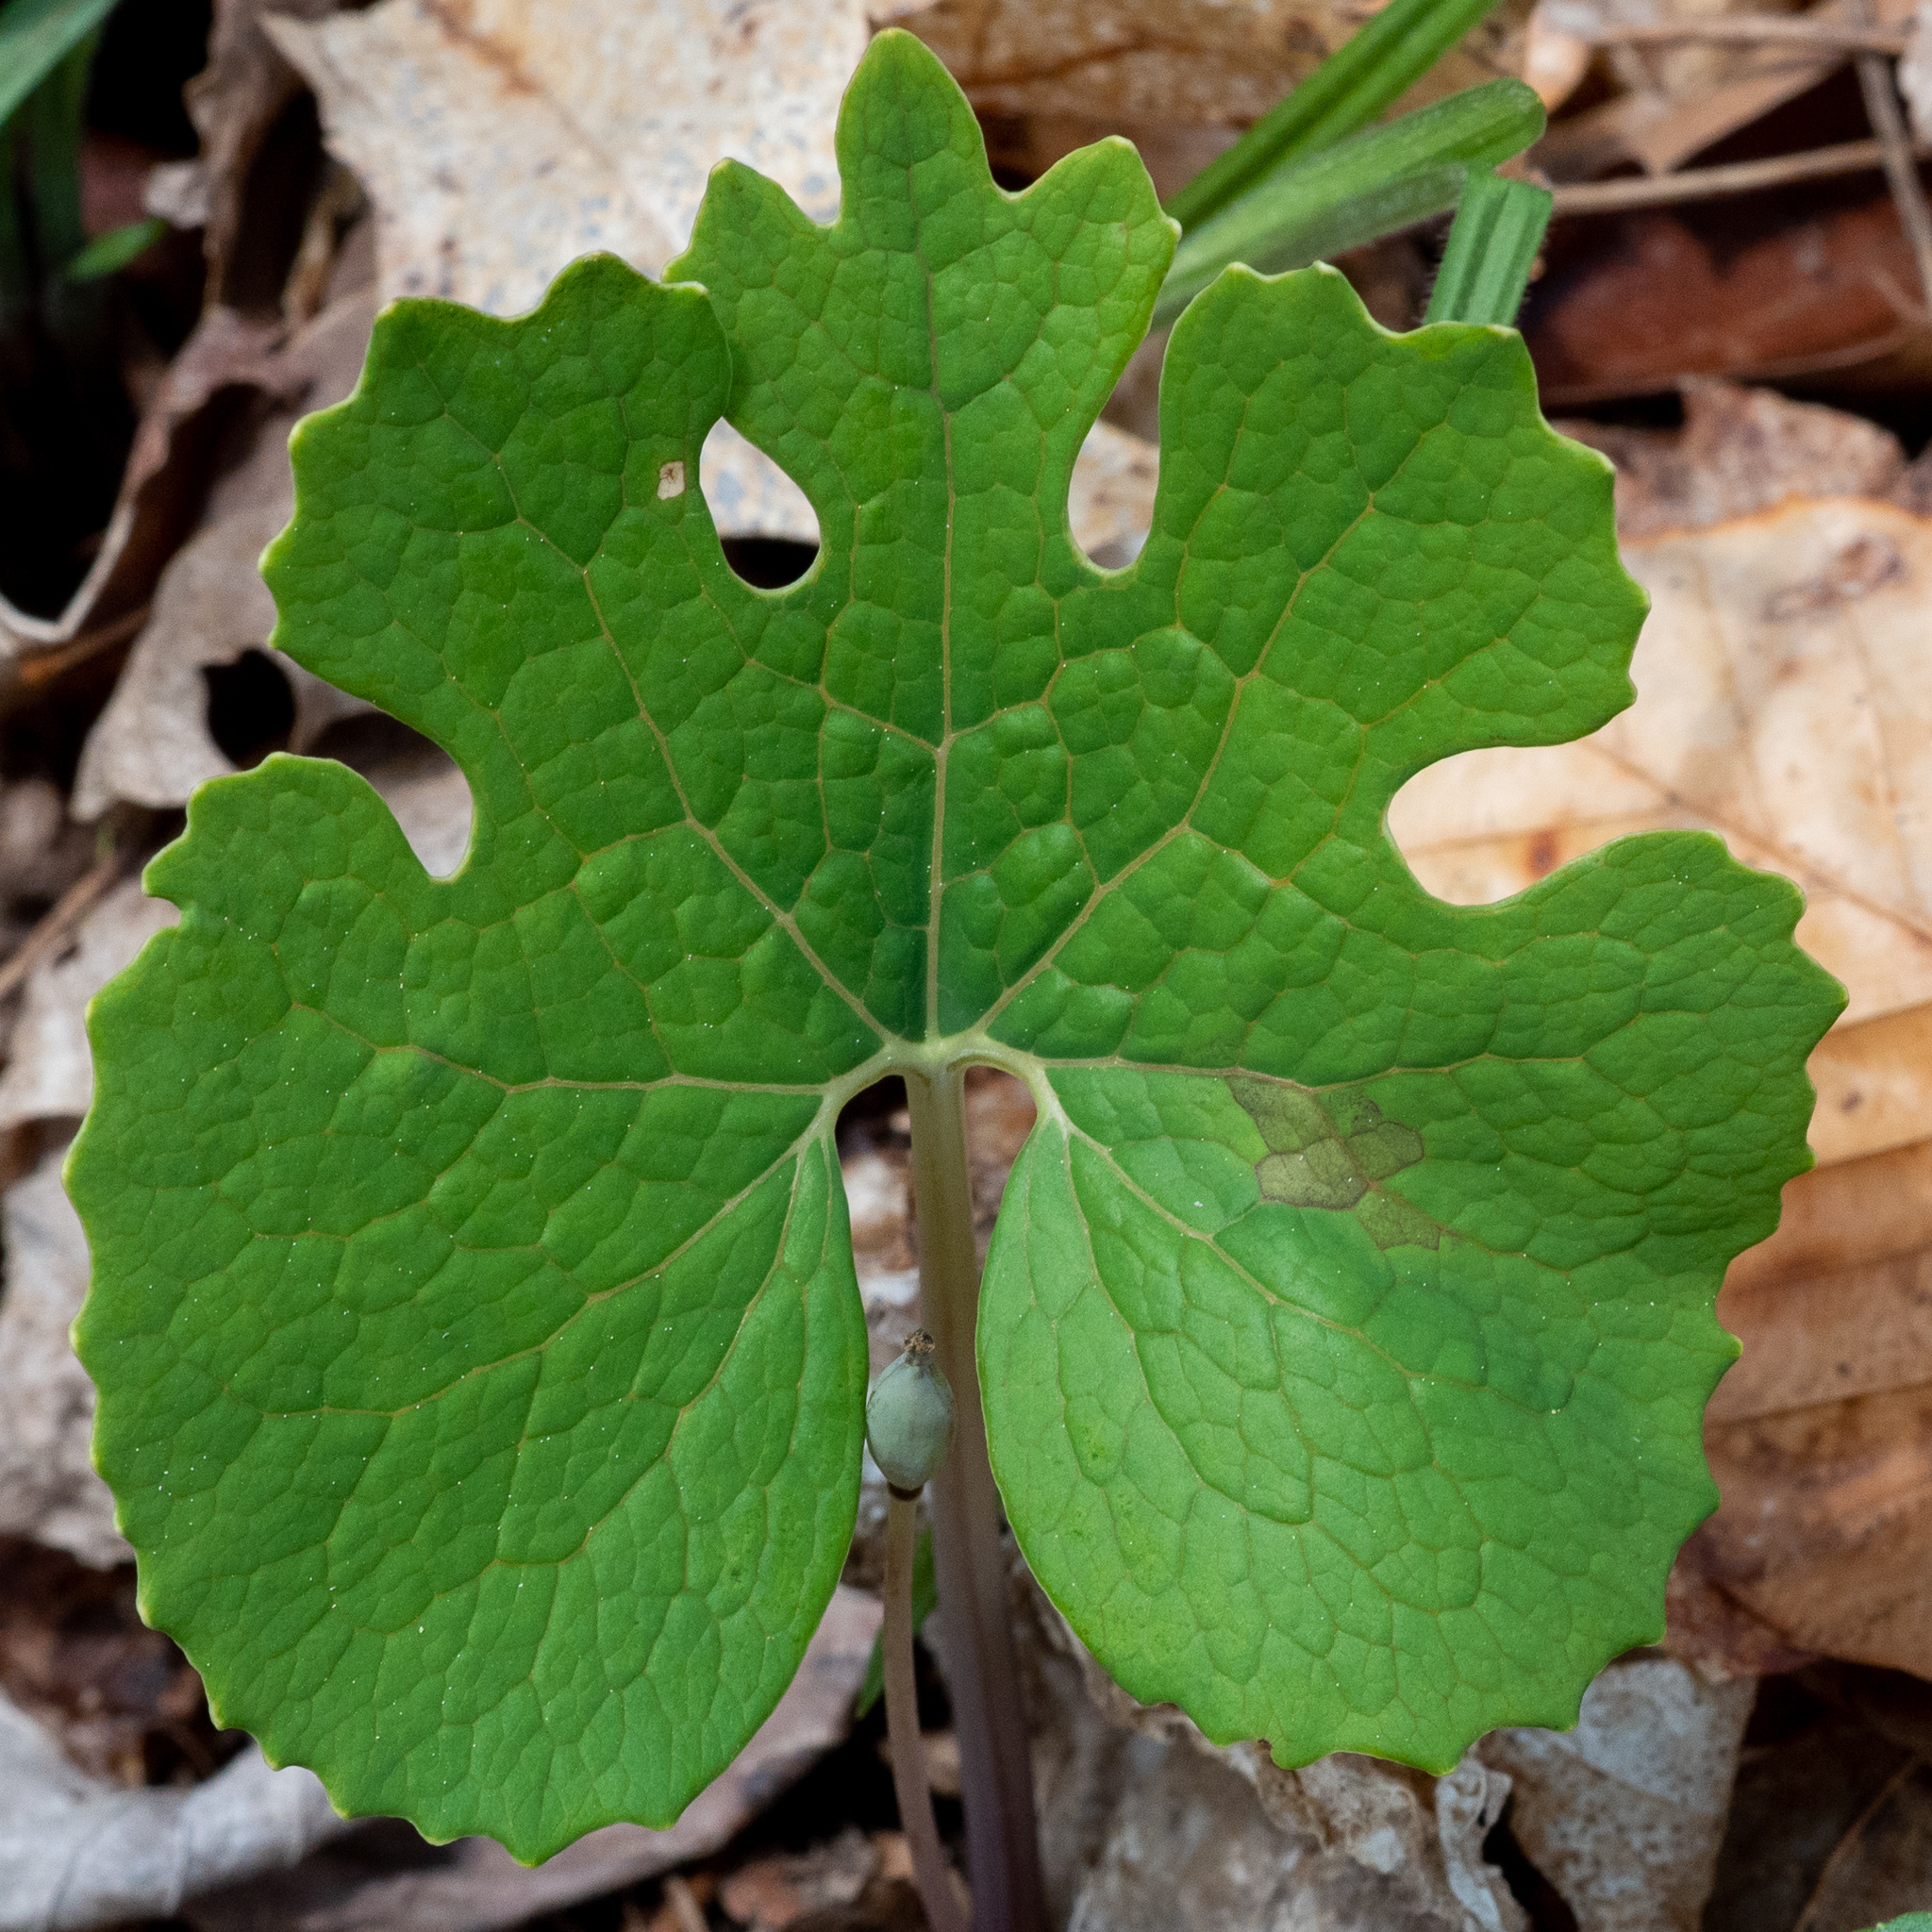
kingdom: Plantae
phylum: Tracheophyta
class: Magnoliopsida
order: Ranunculales
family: Papaveraceae
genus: Sanguinaria
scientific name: Sanguinaria canadensis
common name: Bloodroot
